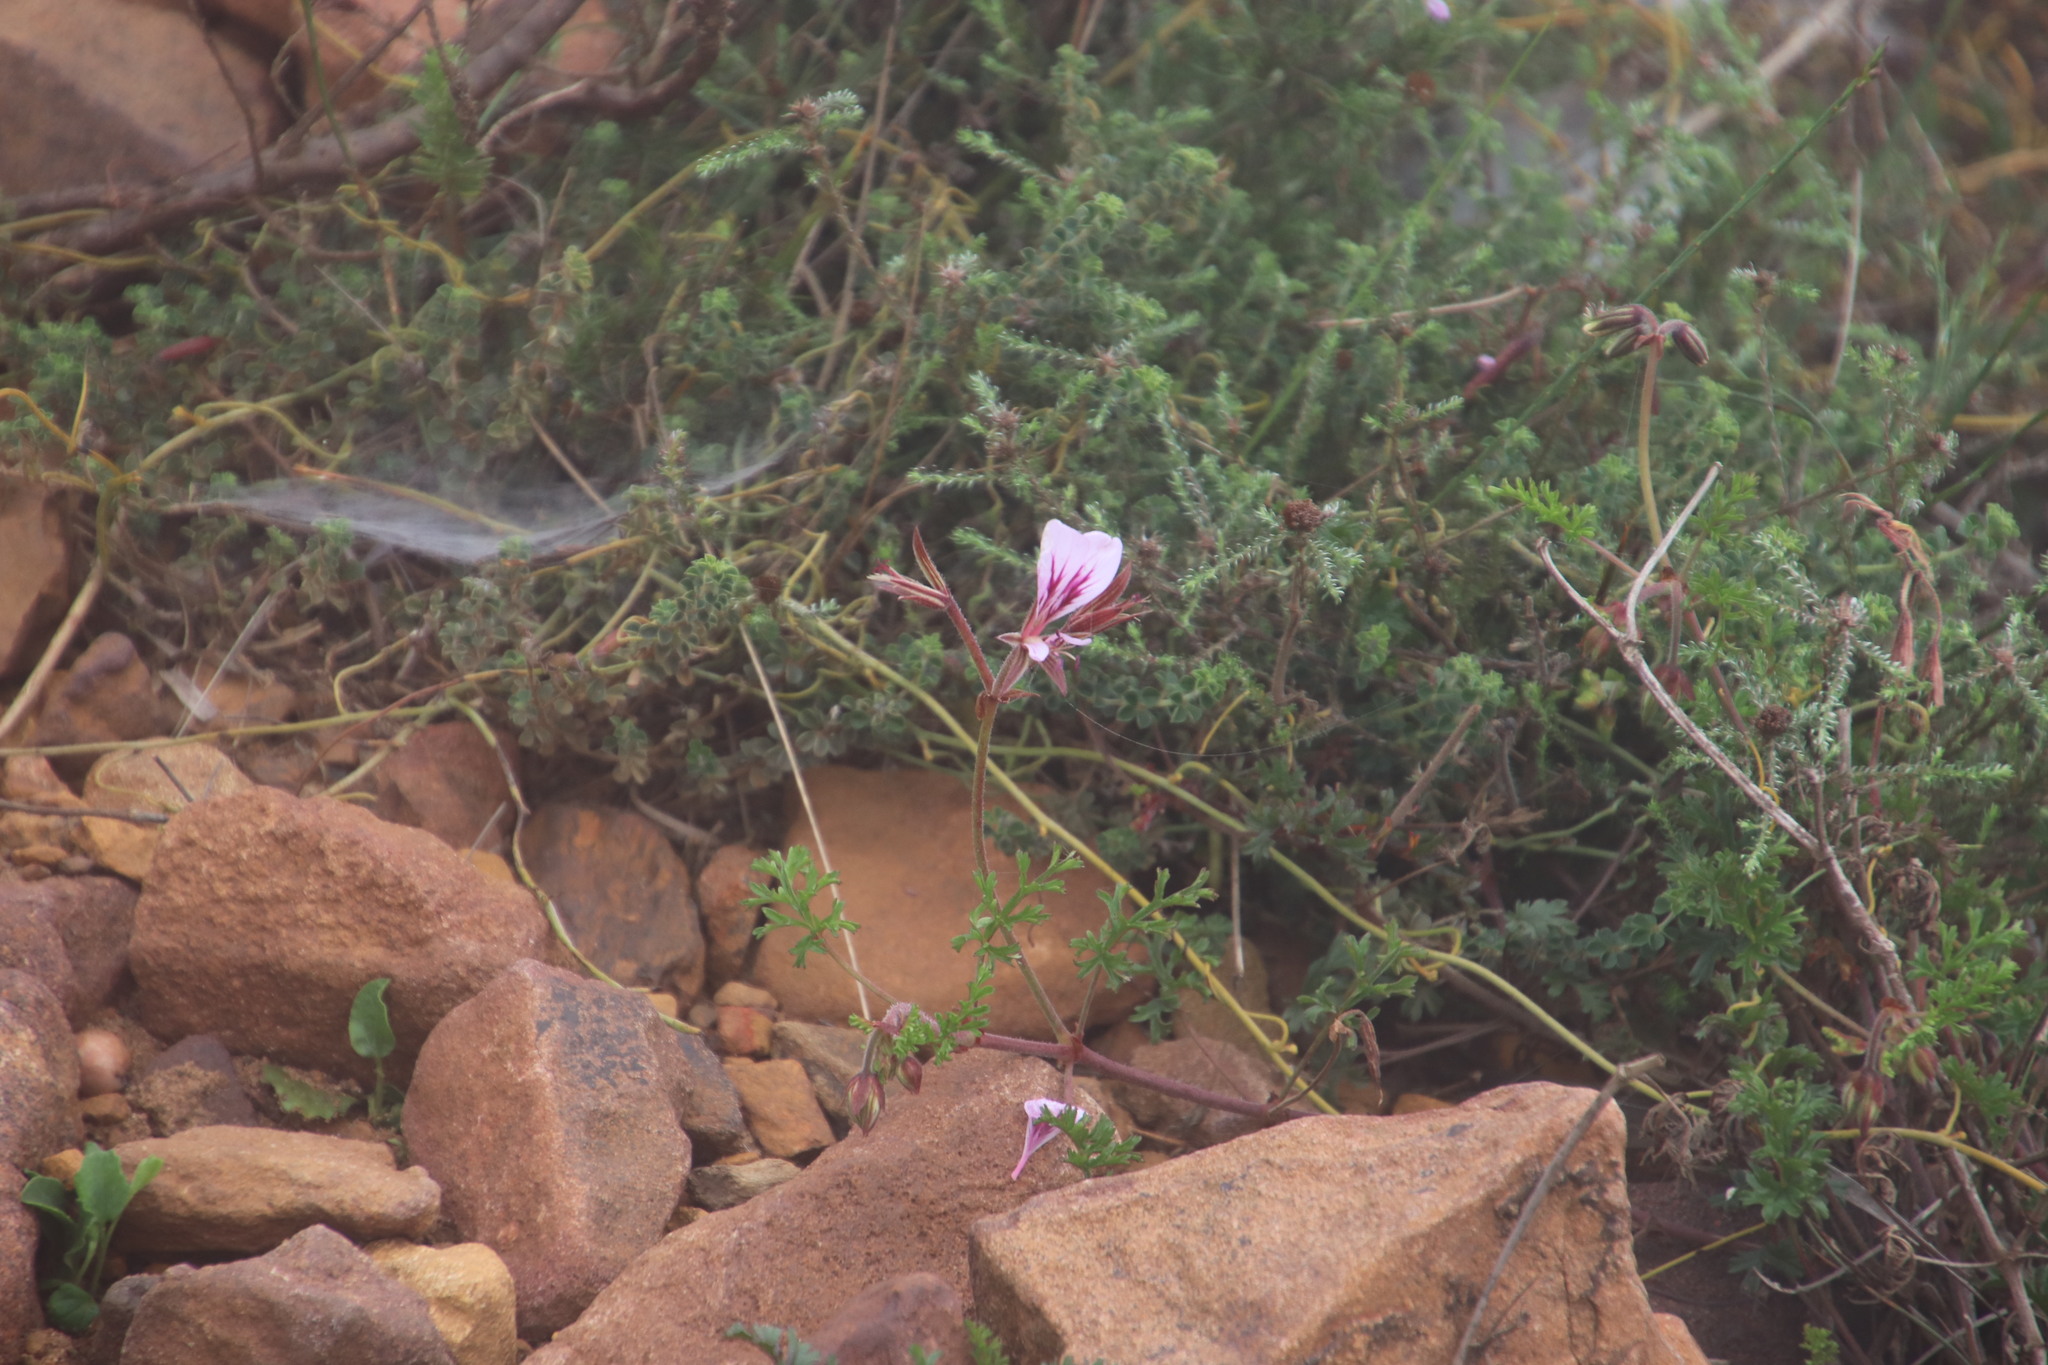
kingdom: Plantae
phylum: Tracheophyta
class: Magnoliopsida
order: Geraniales
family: Geraniaceae
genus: Pelargonium
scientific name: Pelargonium myrrhifolium
